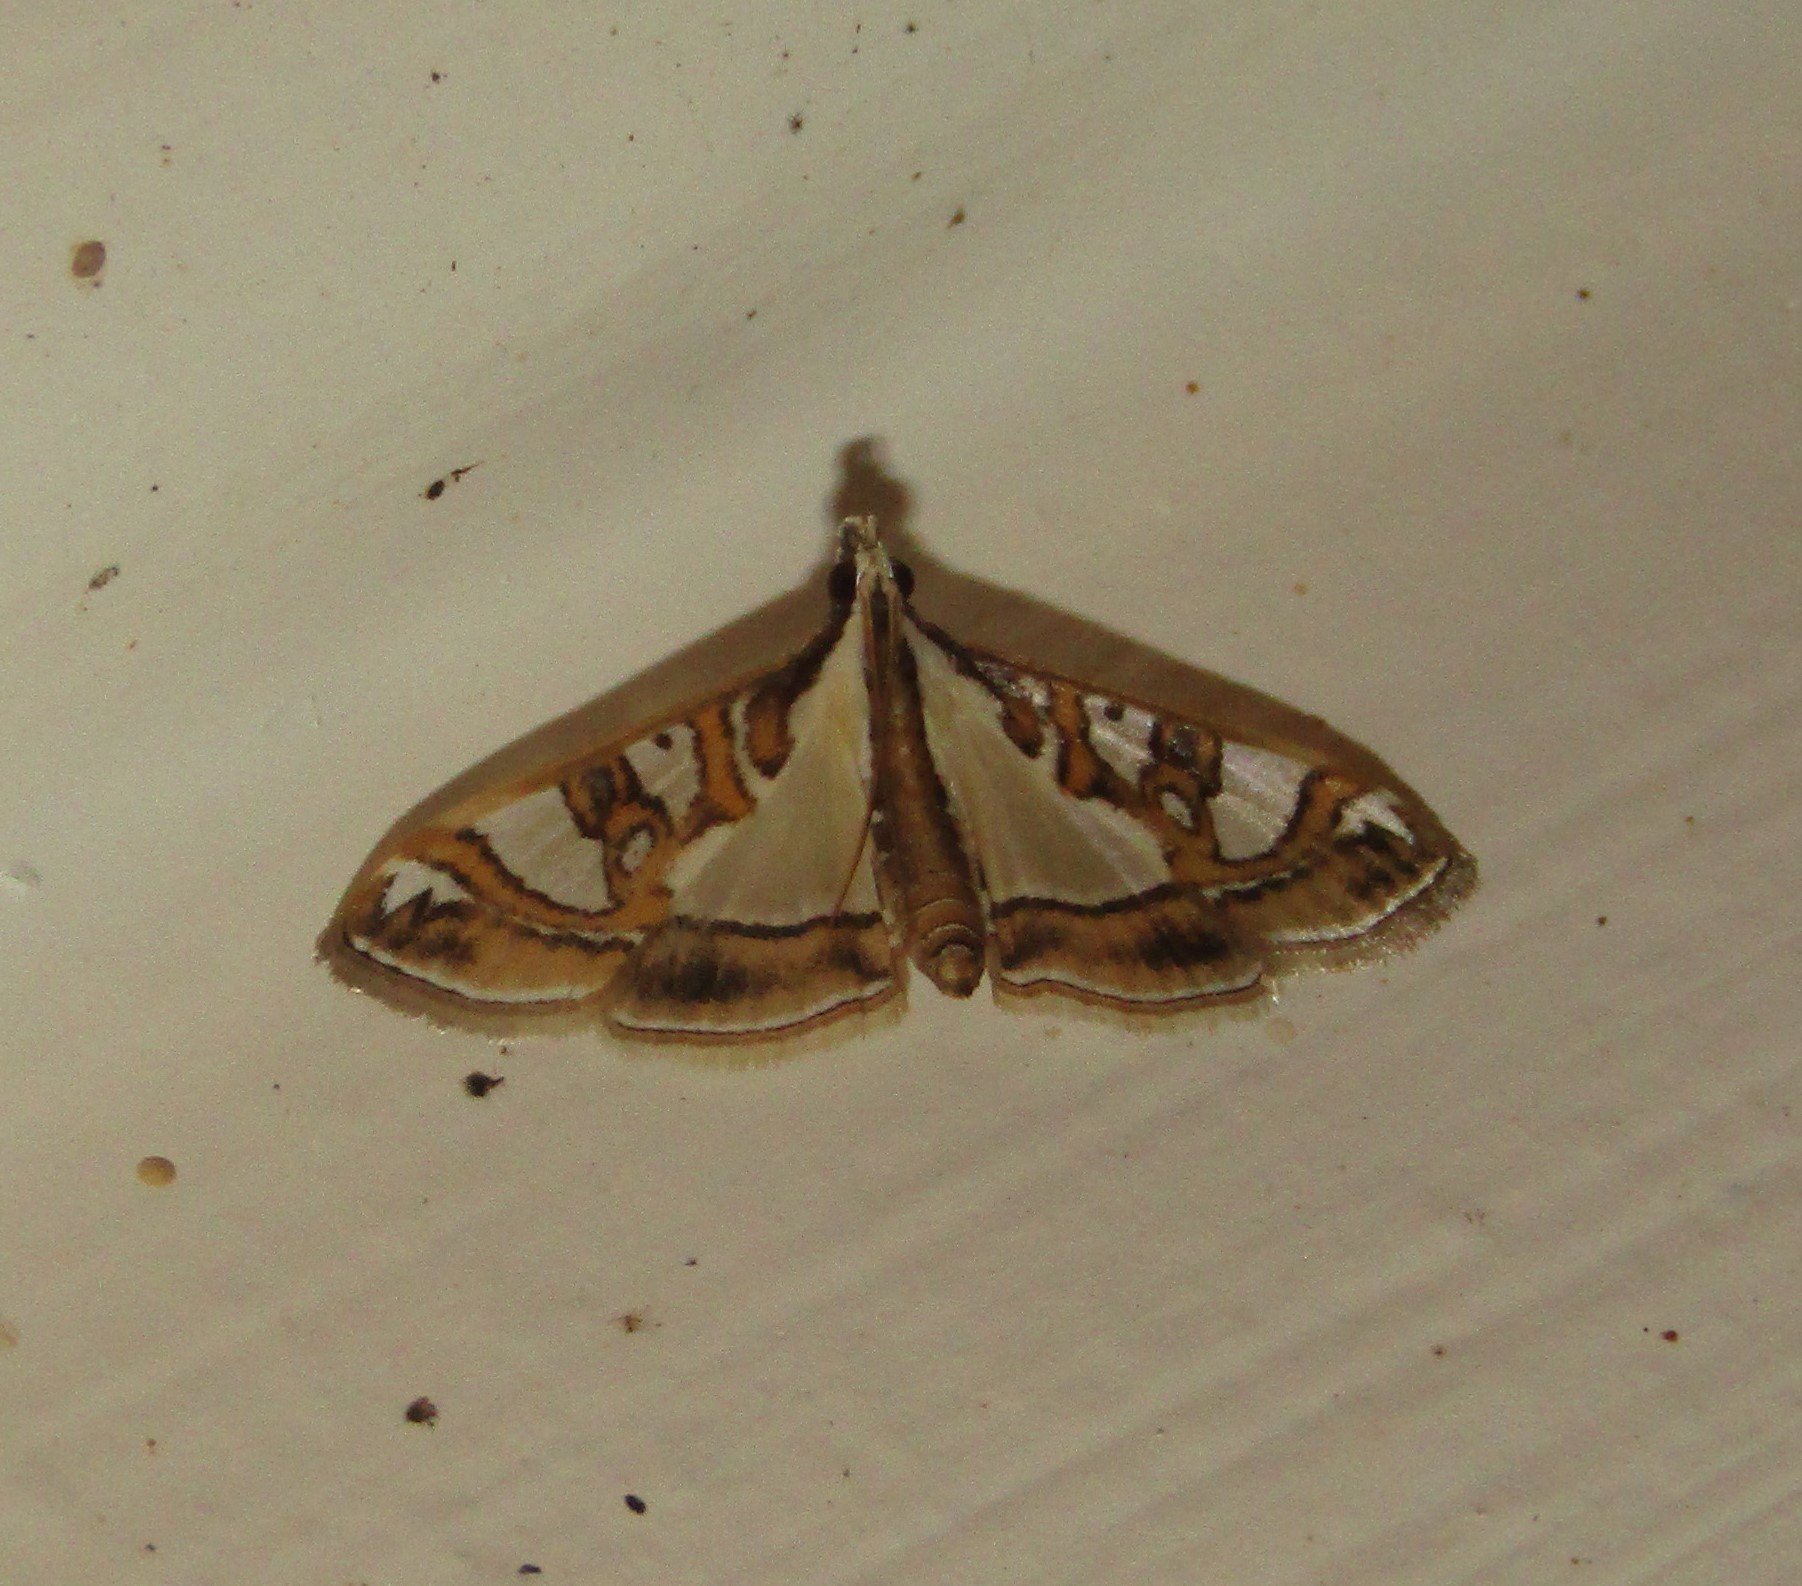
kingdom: Animalia
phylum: Arthropoda
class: Insecta
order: Lepidoptera
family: Crambidae
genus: Glyphodes
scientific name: Glyphodes pyloalis
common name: Lesser mulberry snout moth
